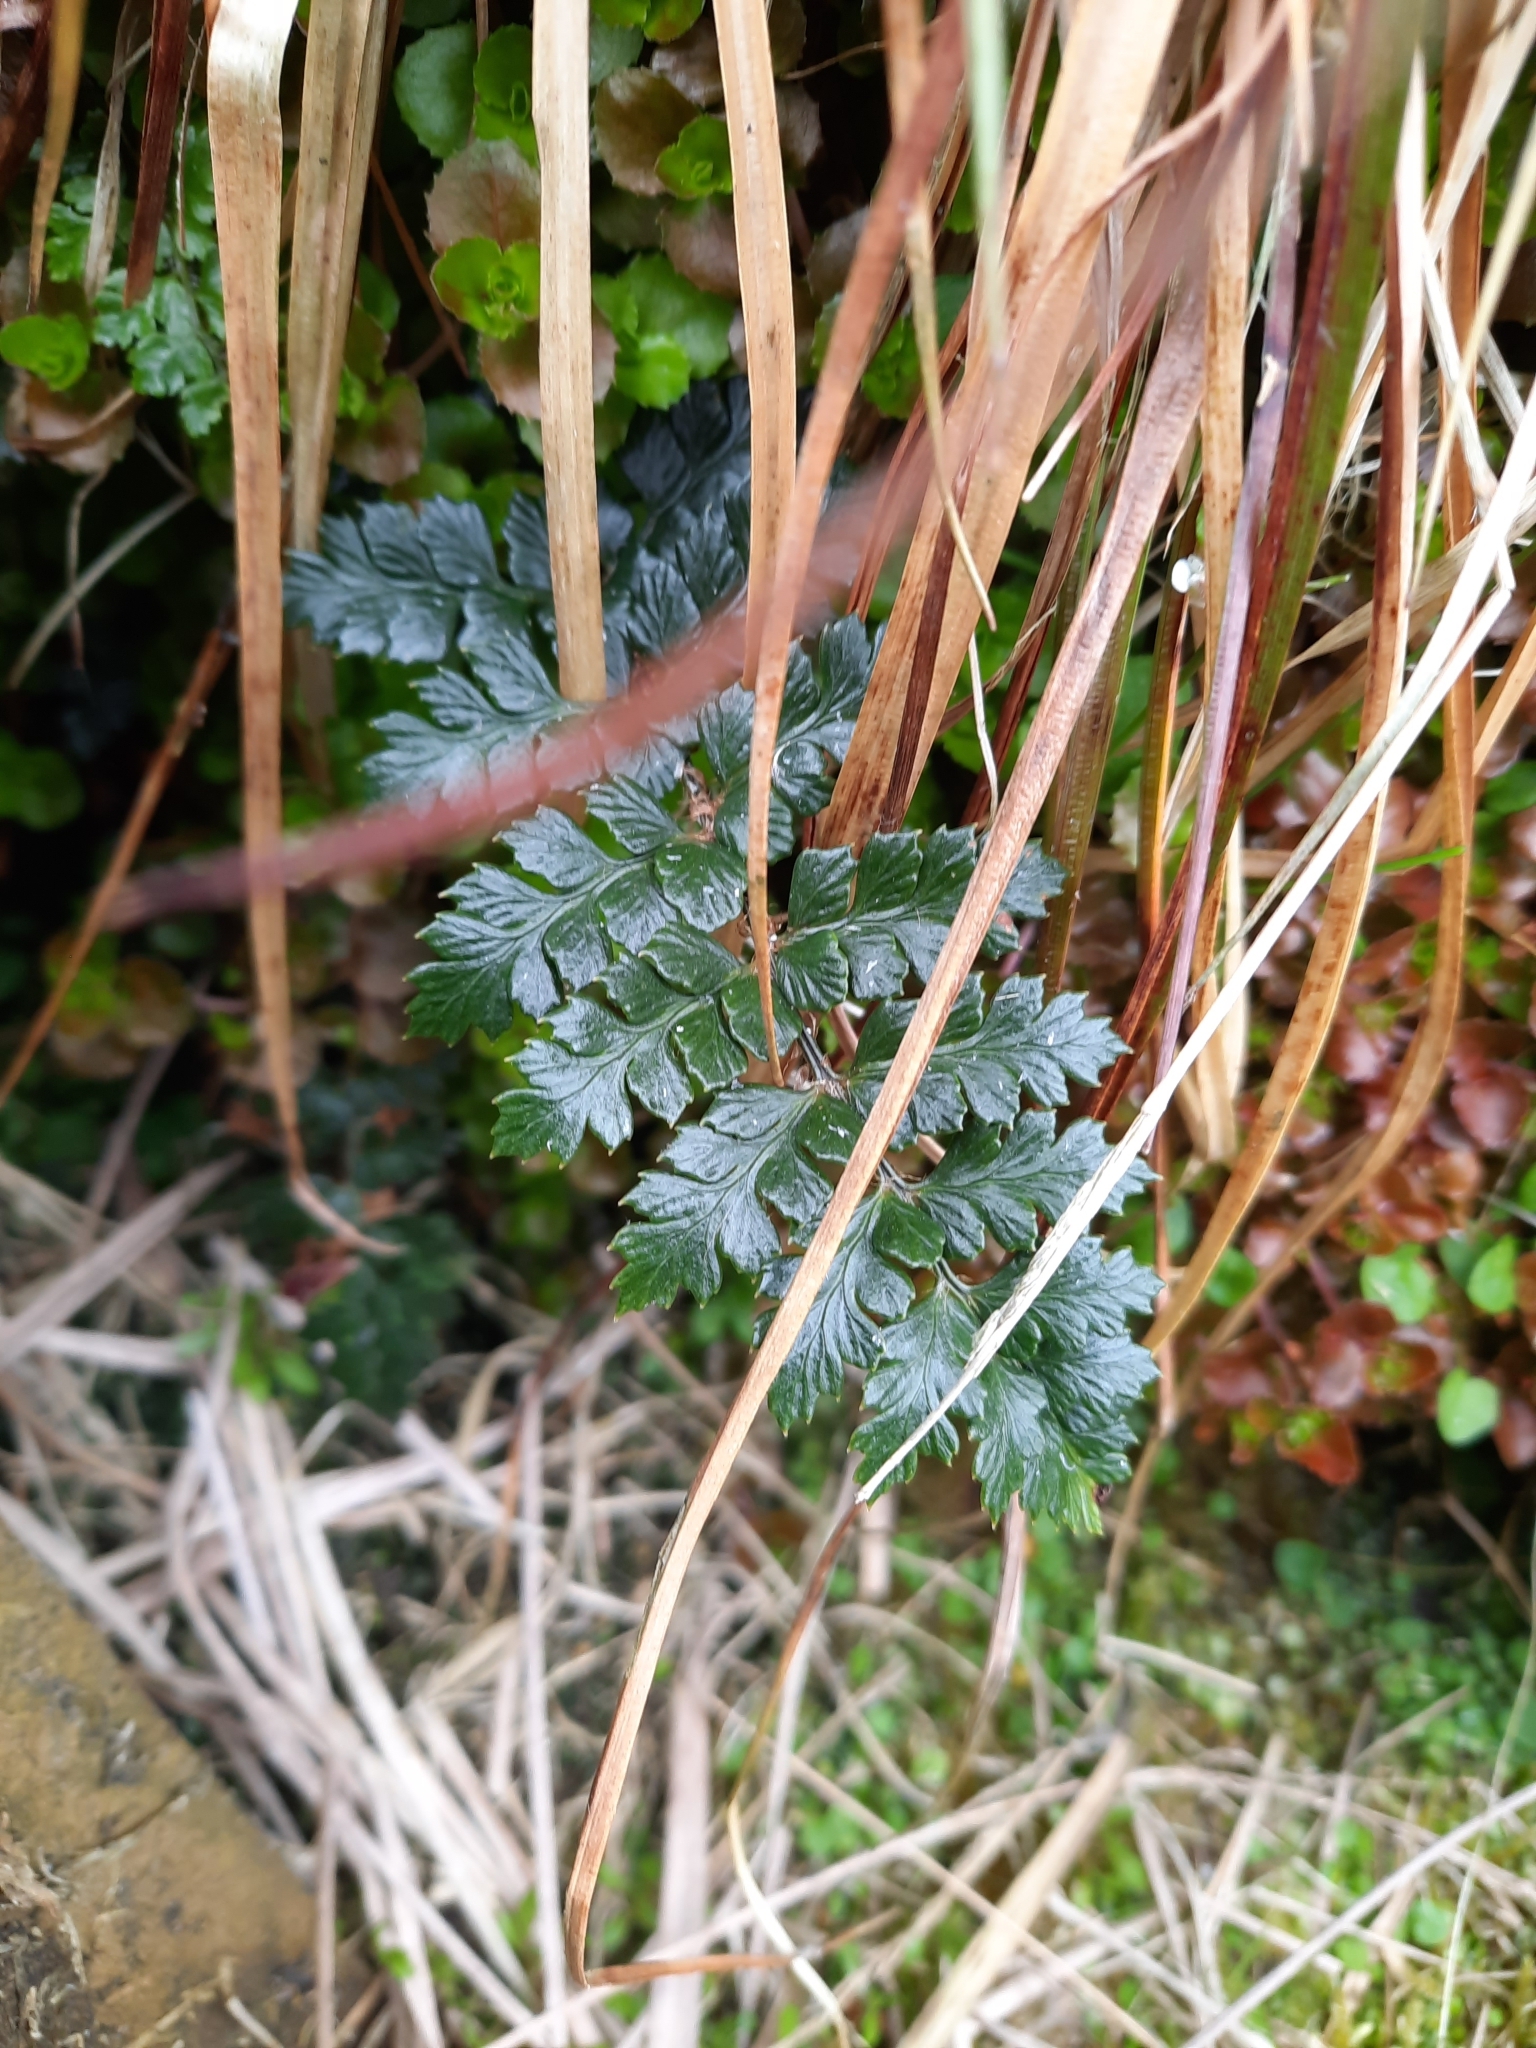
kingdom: Plantae
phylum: Tracheophyta
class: Polypodiopsida
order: Polypodiales
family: Dryopteridaceae
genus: Polystichum
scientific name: Polystichum vestitum
